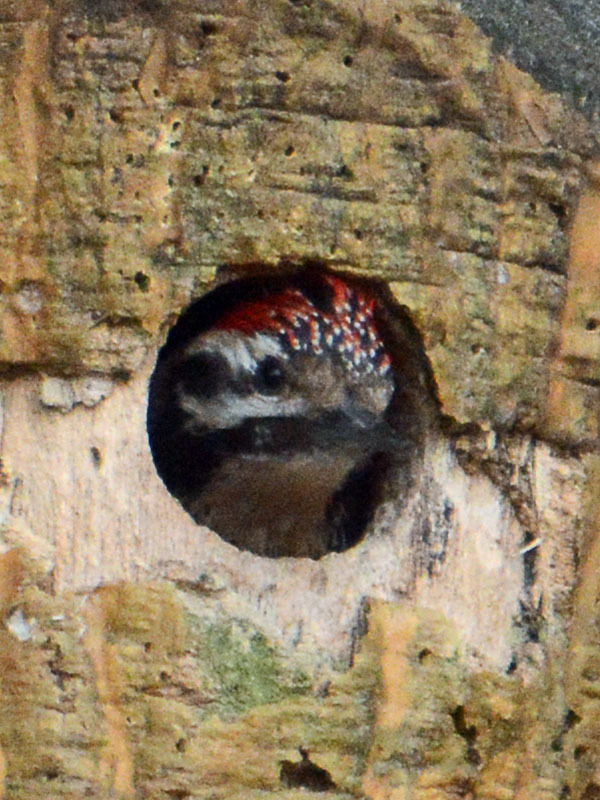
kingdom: Animalia
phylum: Chordata
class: Aves
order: Piciformes
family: Picidae
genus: Dryobates
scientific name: Dryobates scalaris
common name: Ladder-backed woodpecker
